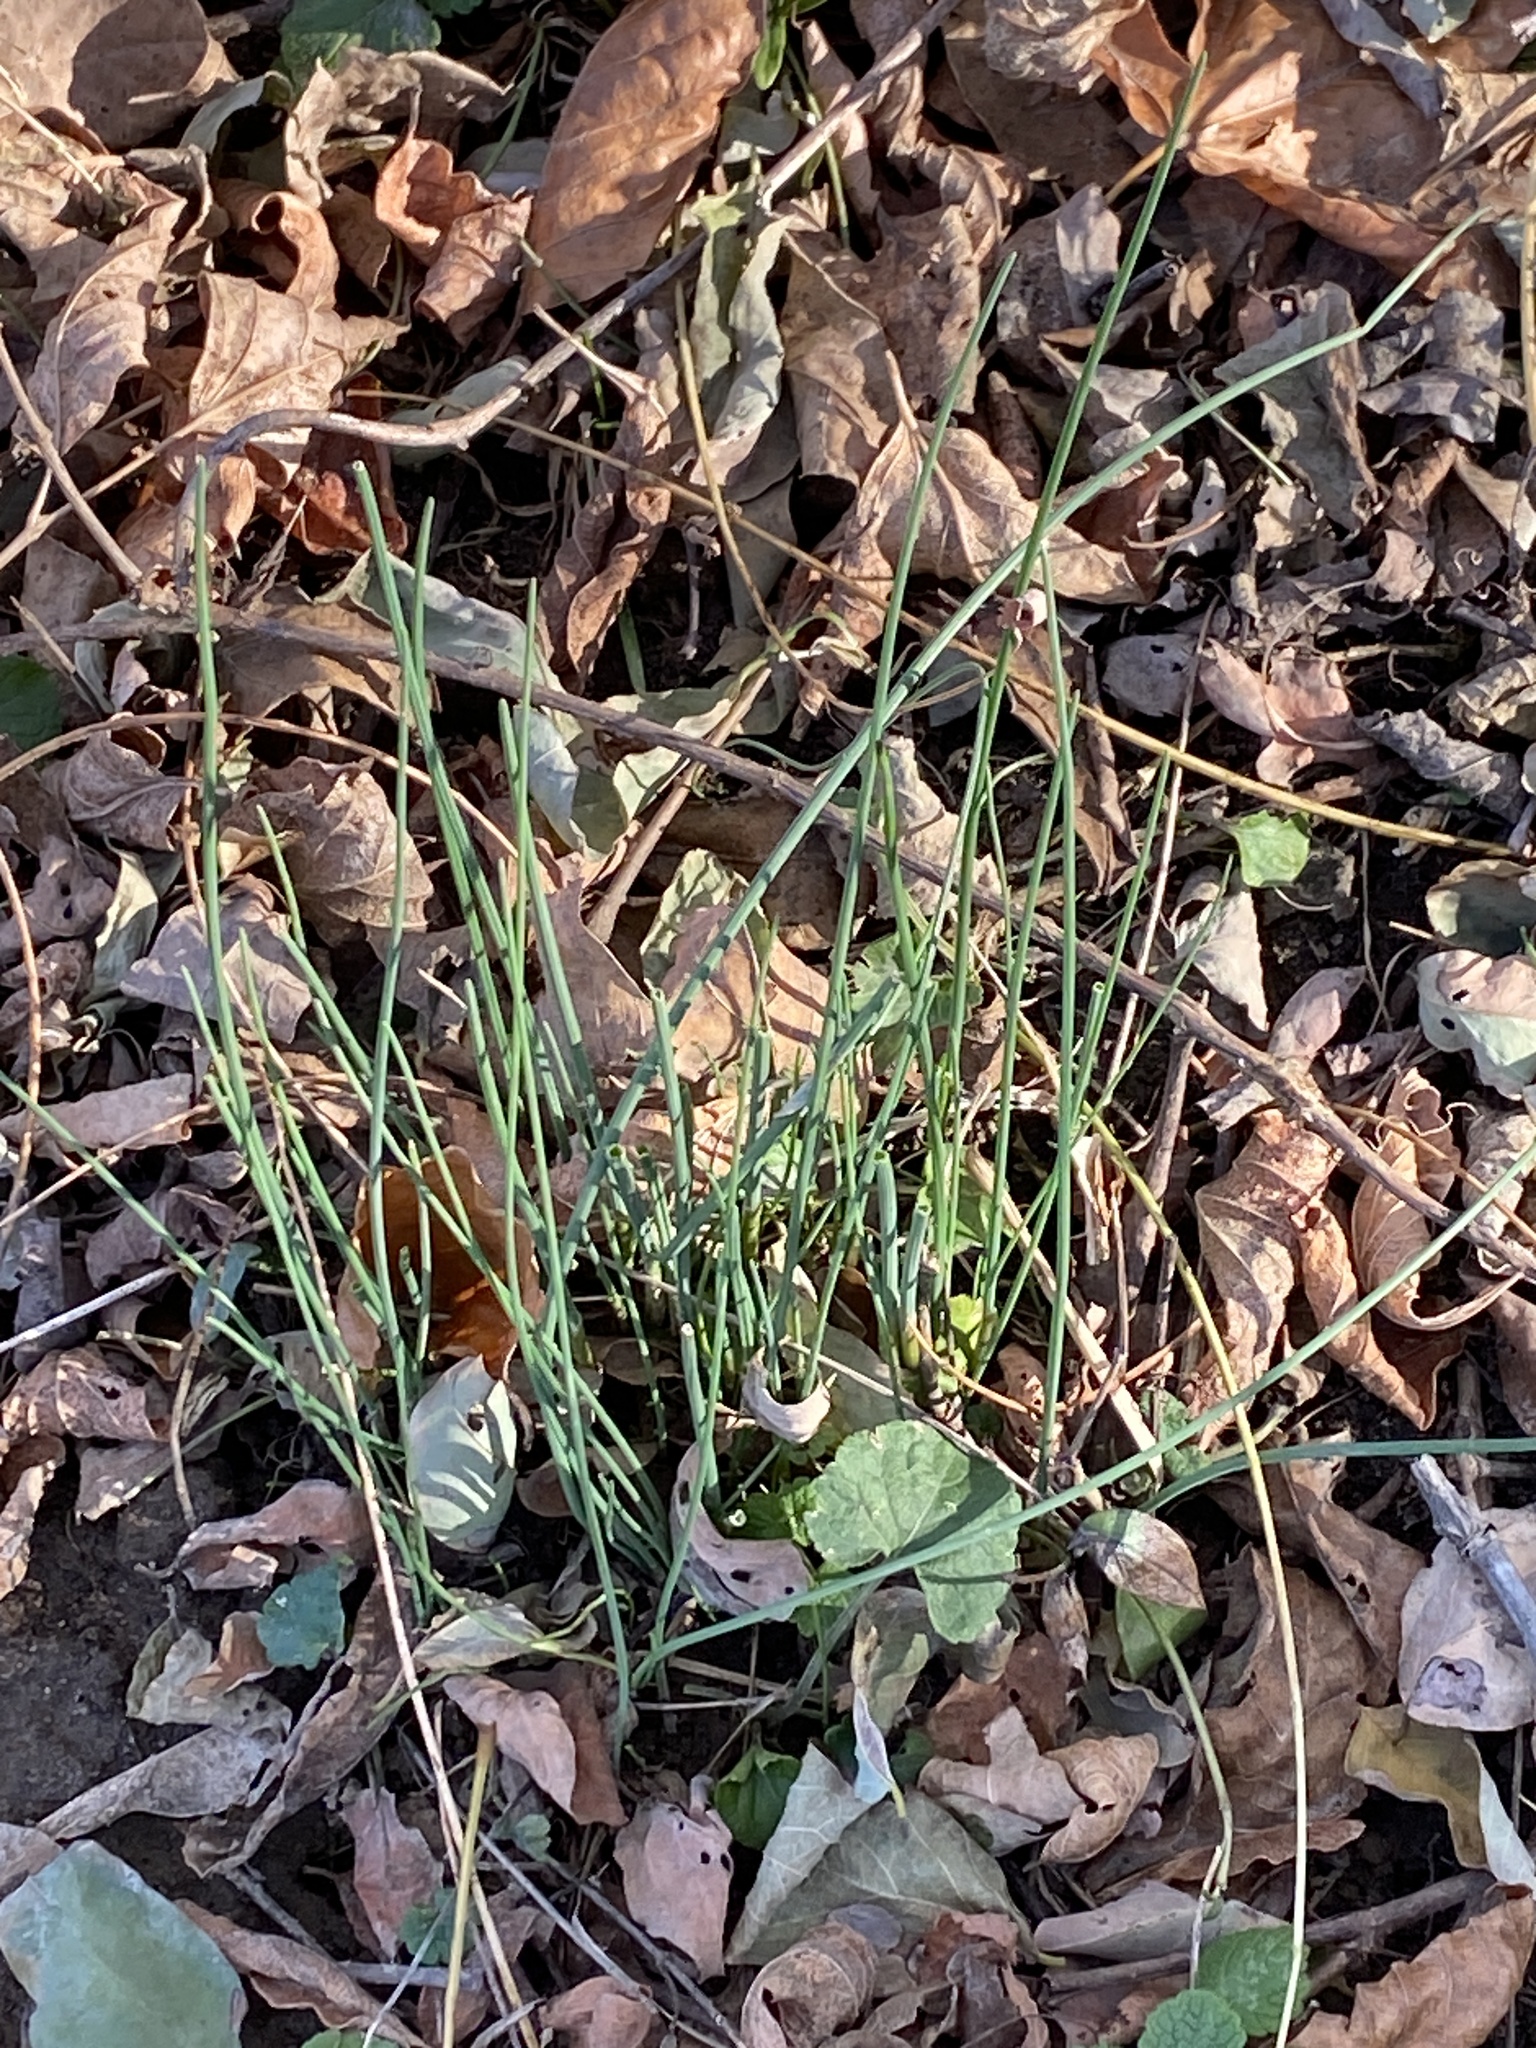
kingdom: Plantae
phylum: Tracheophyta
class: Liliopsida
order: Asparagales
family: Amaryllidaceae
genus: Allium
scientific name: Allium vineale
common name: Crow garlic
